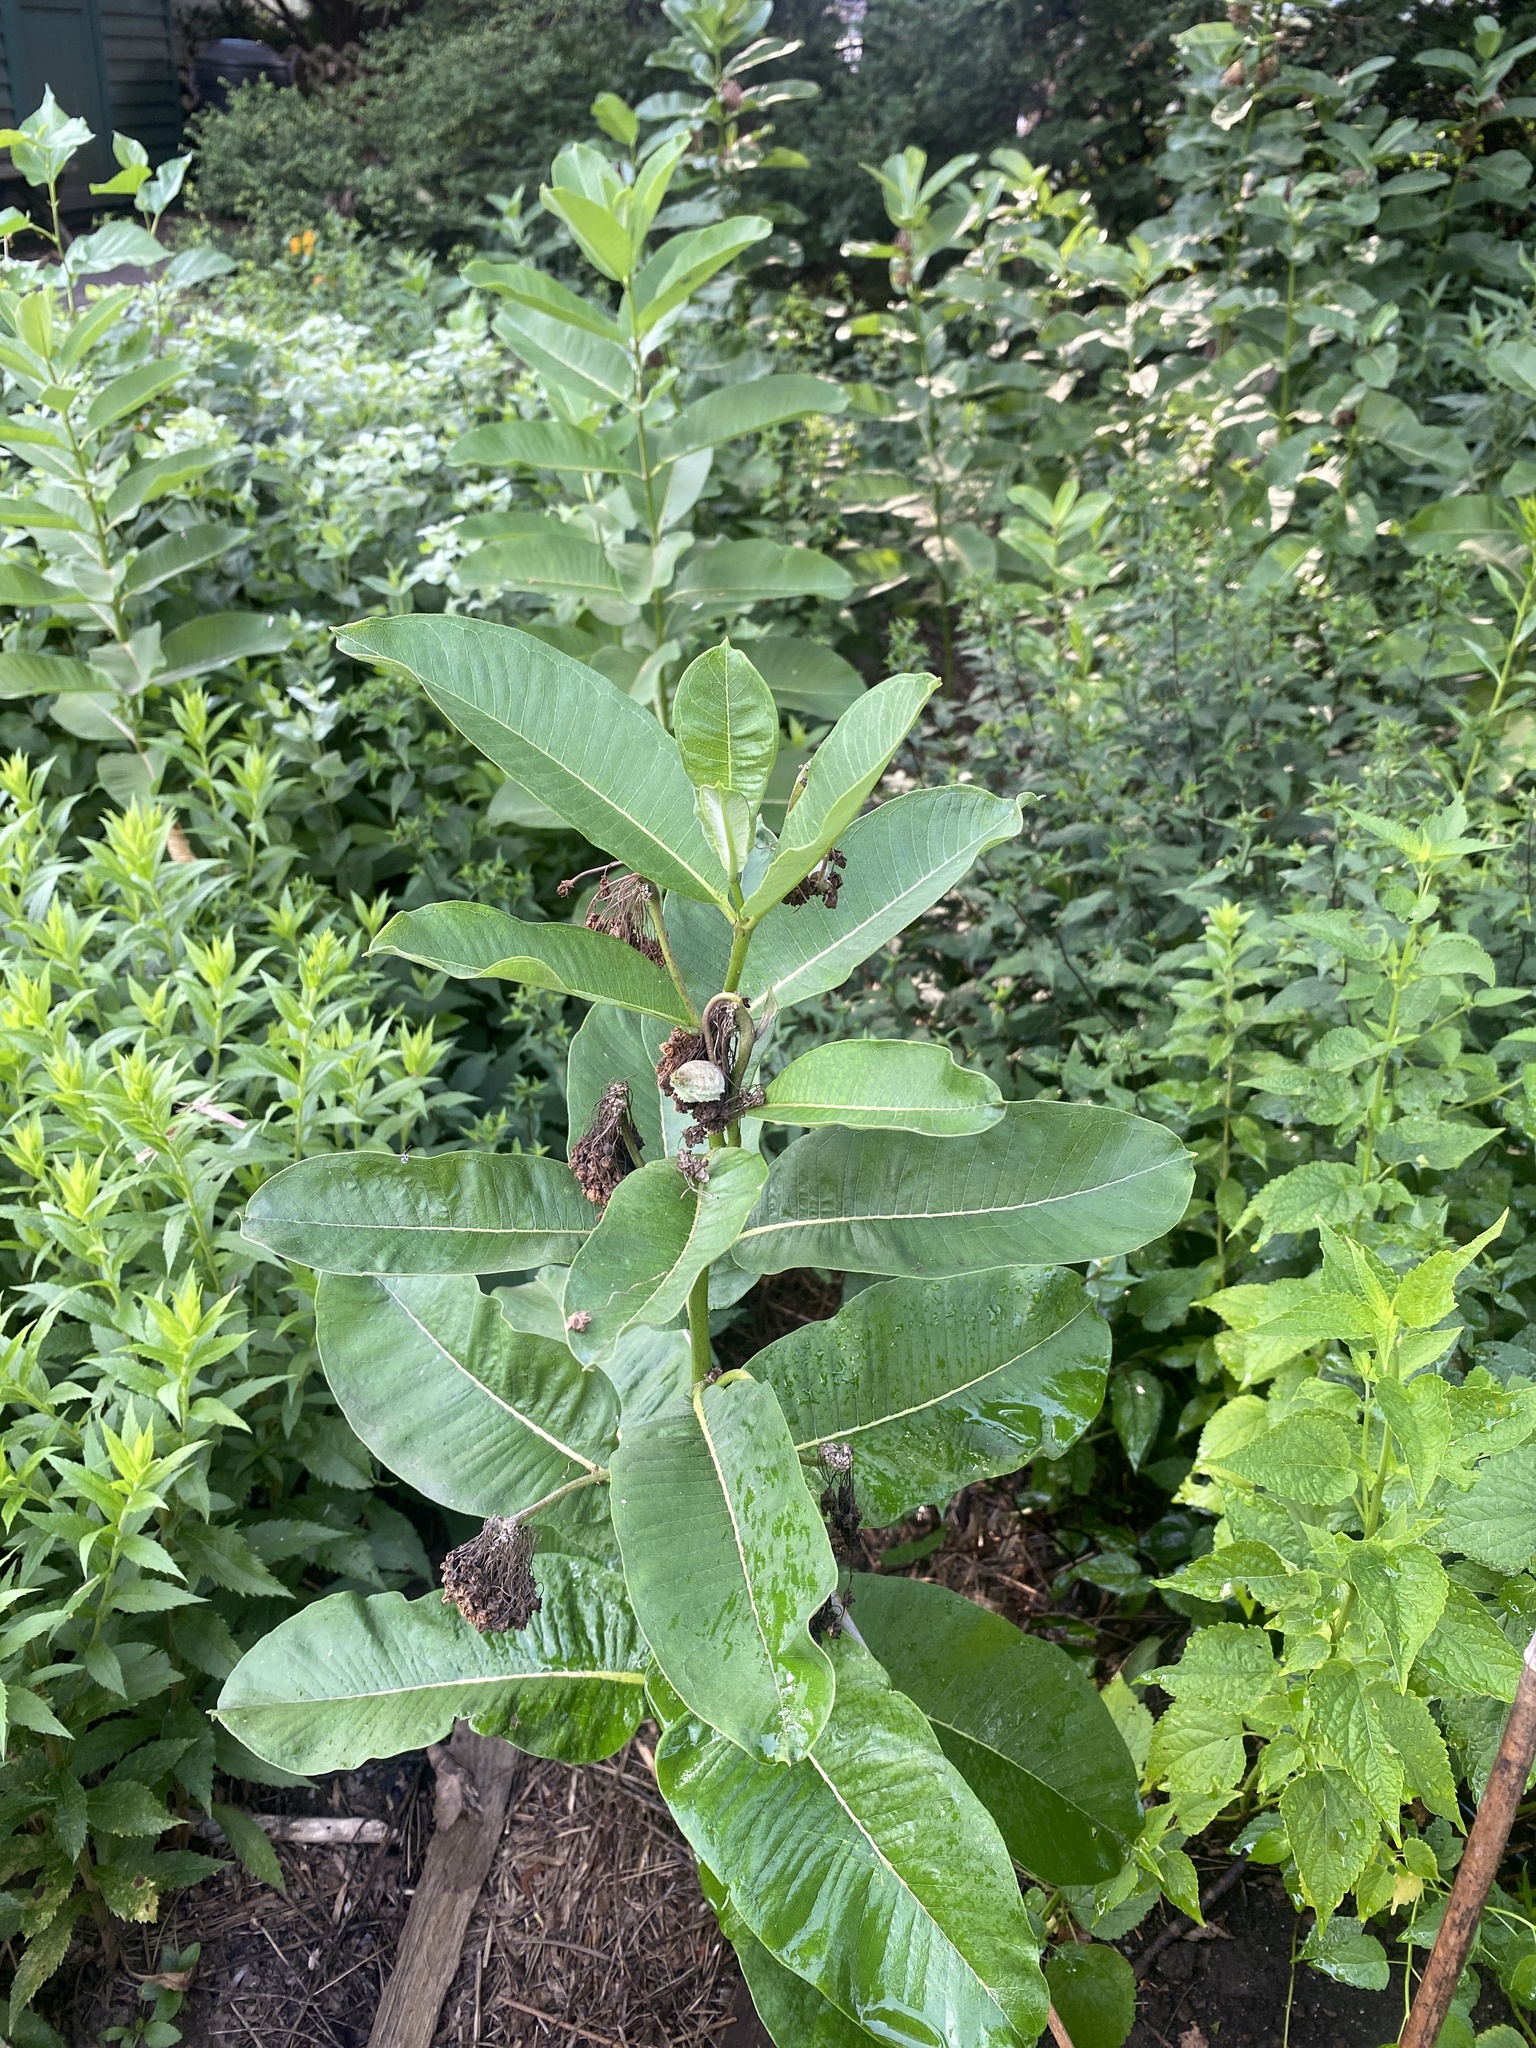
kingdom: Plantae
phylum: Tracheophyta
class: Magnoliopsida
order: Gentianales
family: Apocynaceae
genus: Asclepias
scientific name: Asclepias syriaca
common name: Common milkweed
